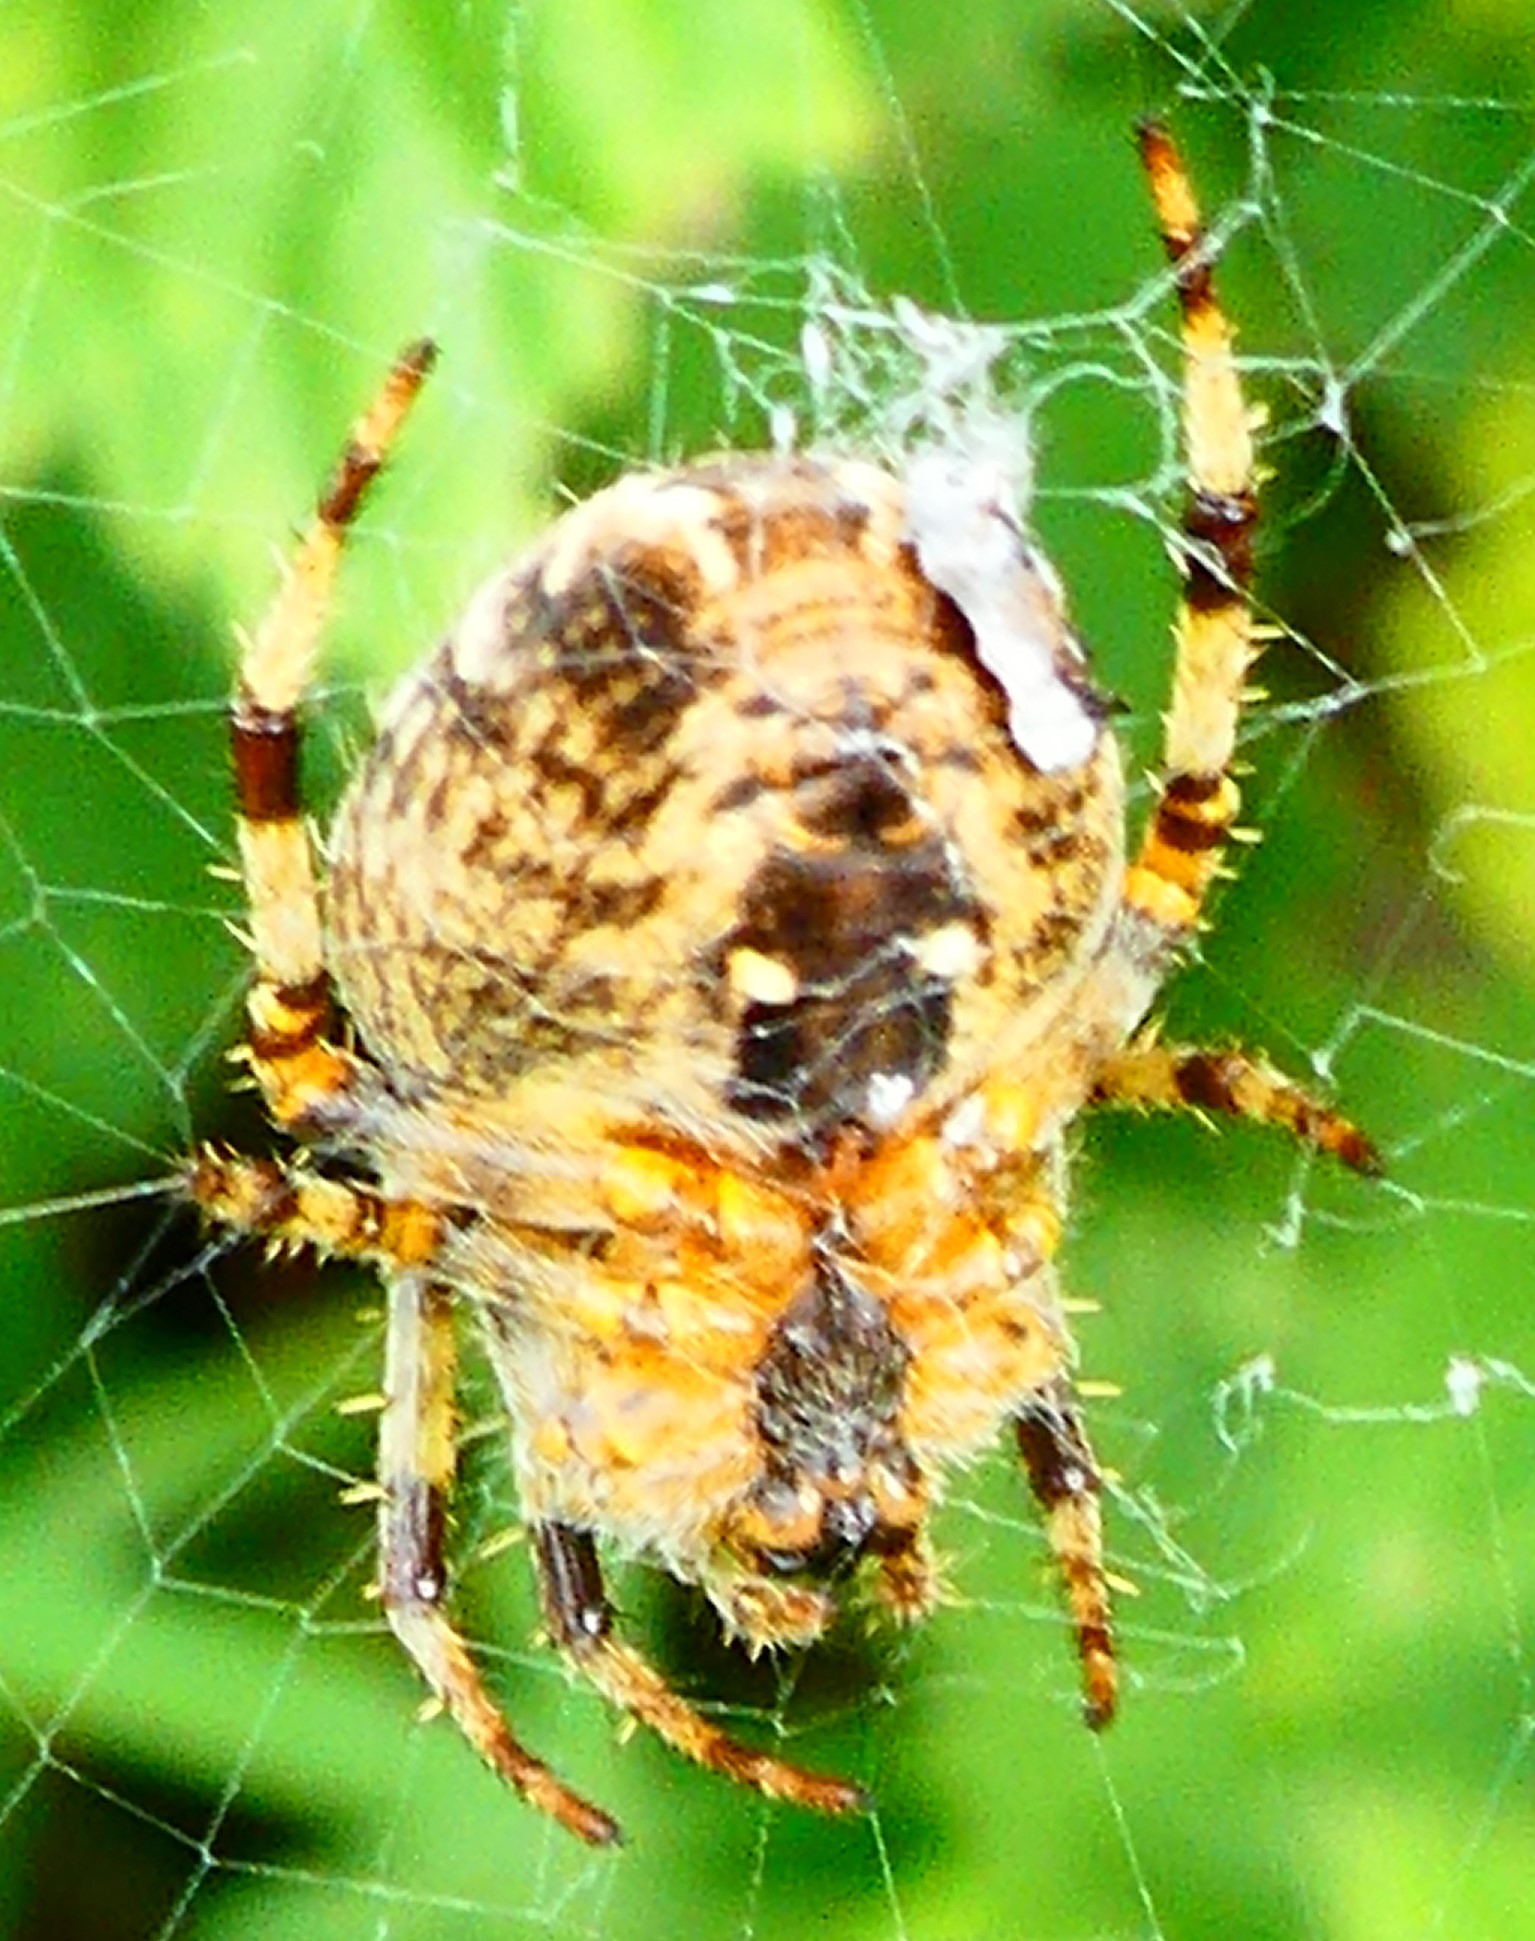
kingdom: Animalia
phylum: Arthropoda
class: Arachnida
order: Araneae
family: Araneidae
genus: Araneus
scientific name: Araneus diadematus
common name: Cross orbweaver
